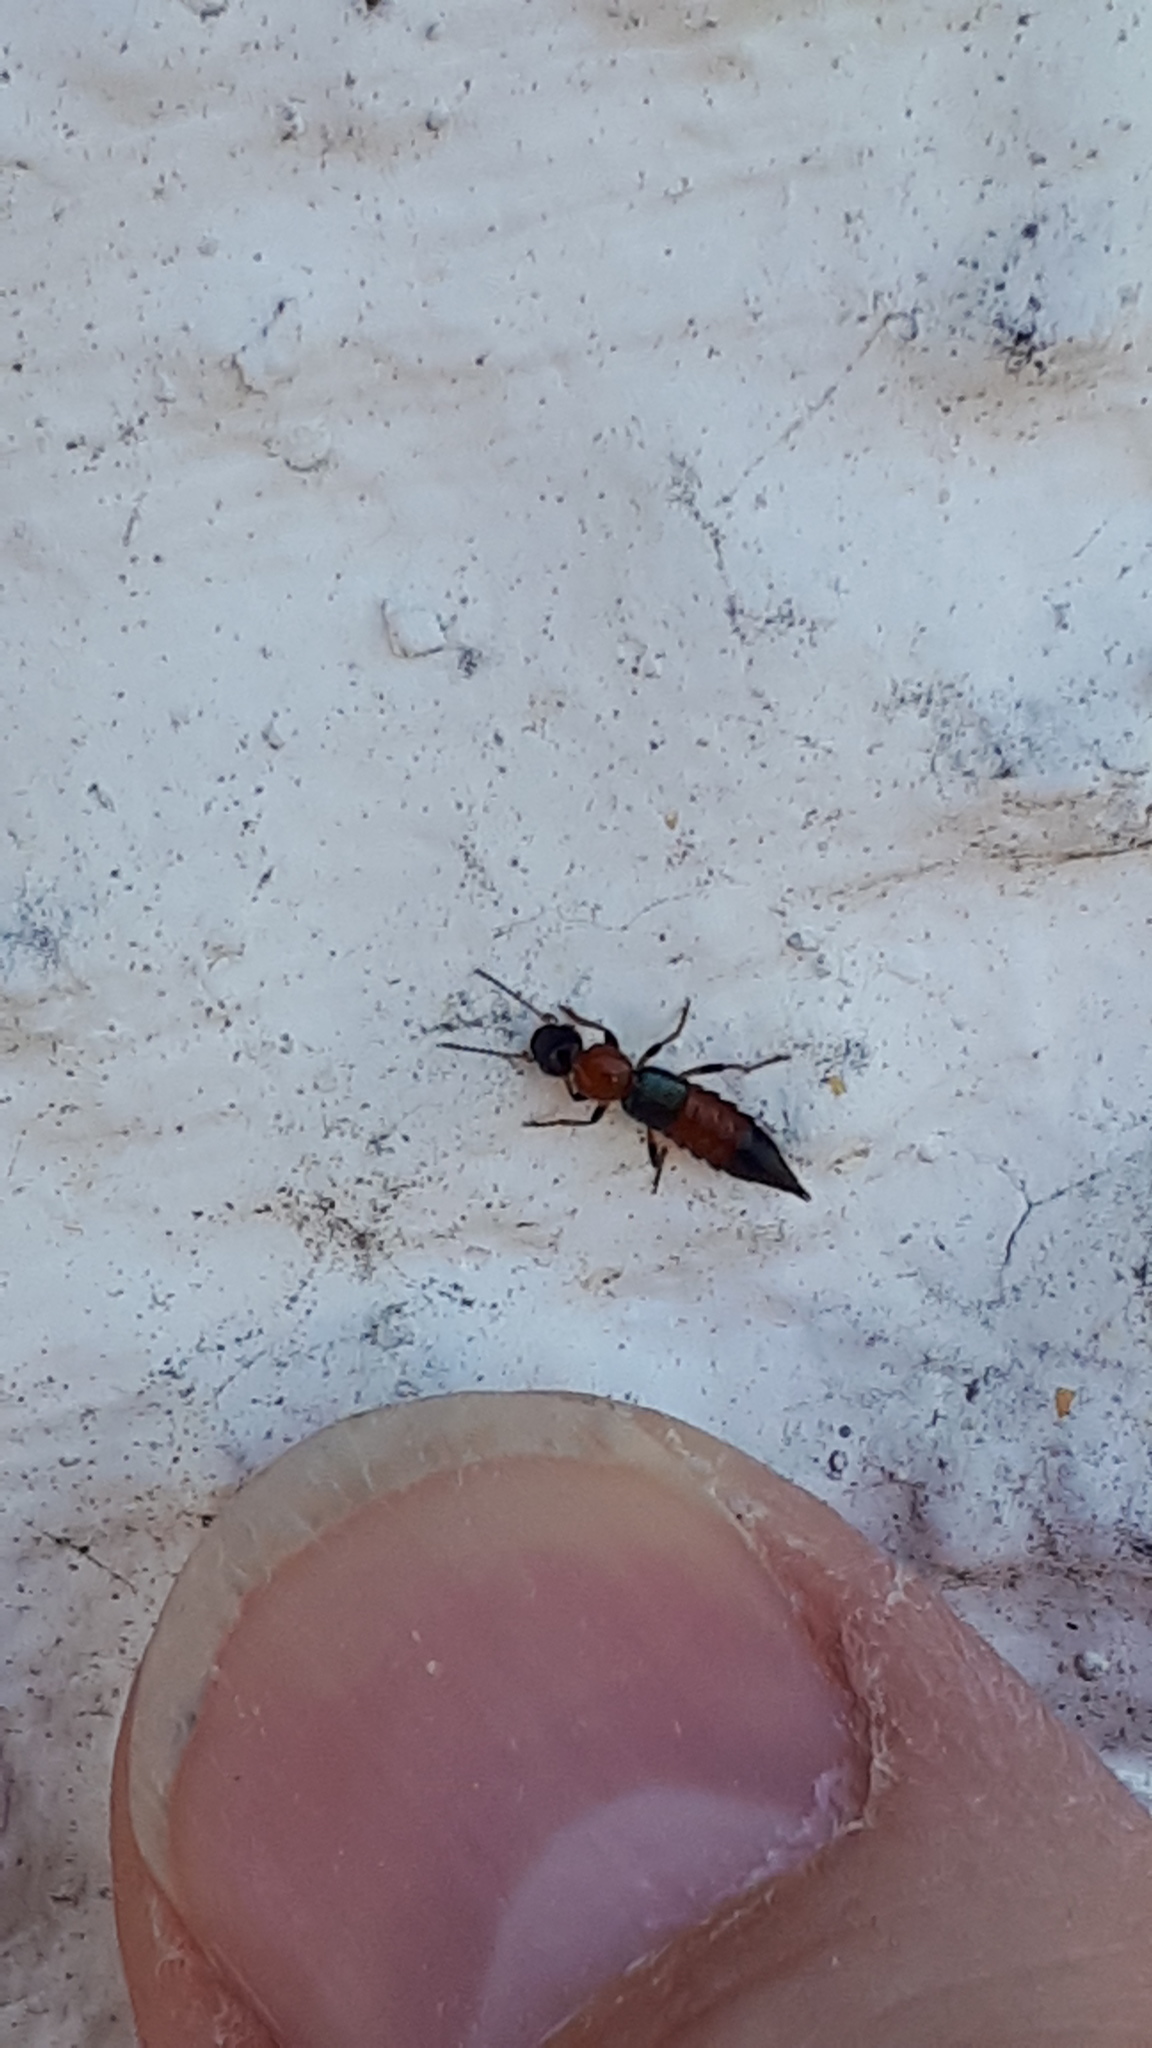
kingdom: Animalia
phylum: Arthropoda
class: Insecta
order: Coleoptera
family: Staphylinidae
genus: Paederus
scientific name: Paederus littoralis
